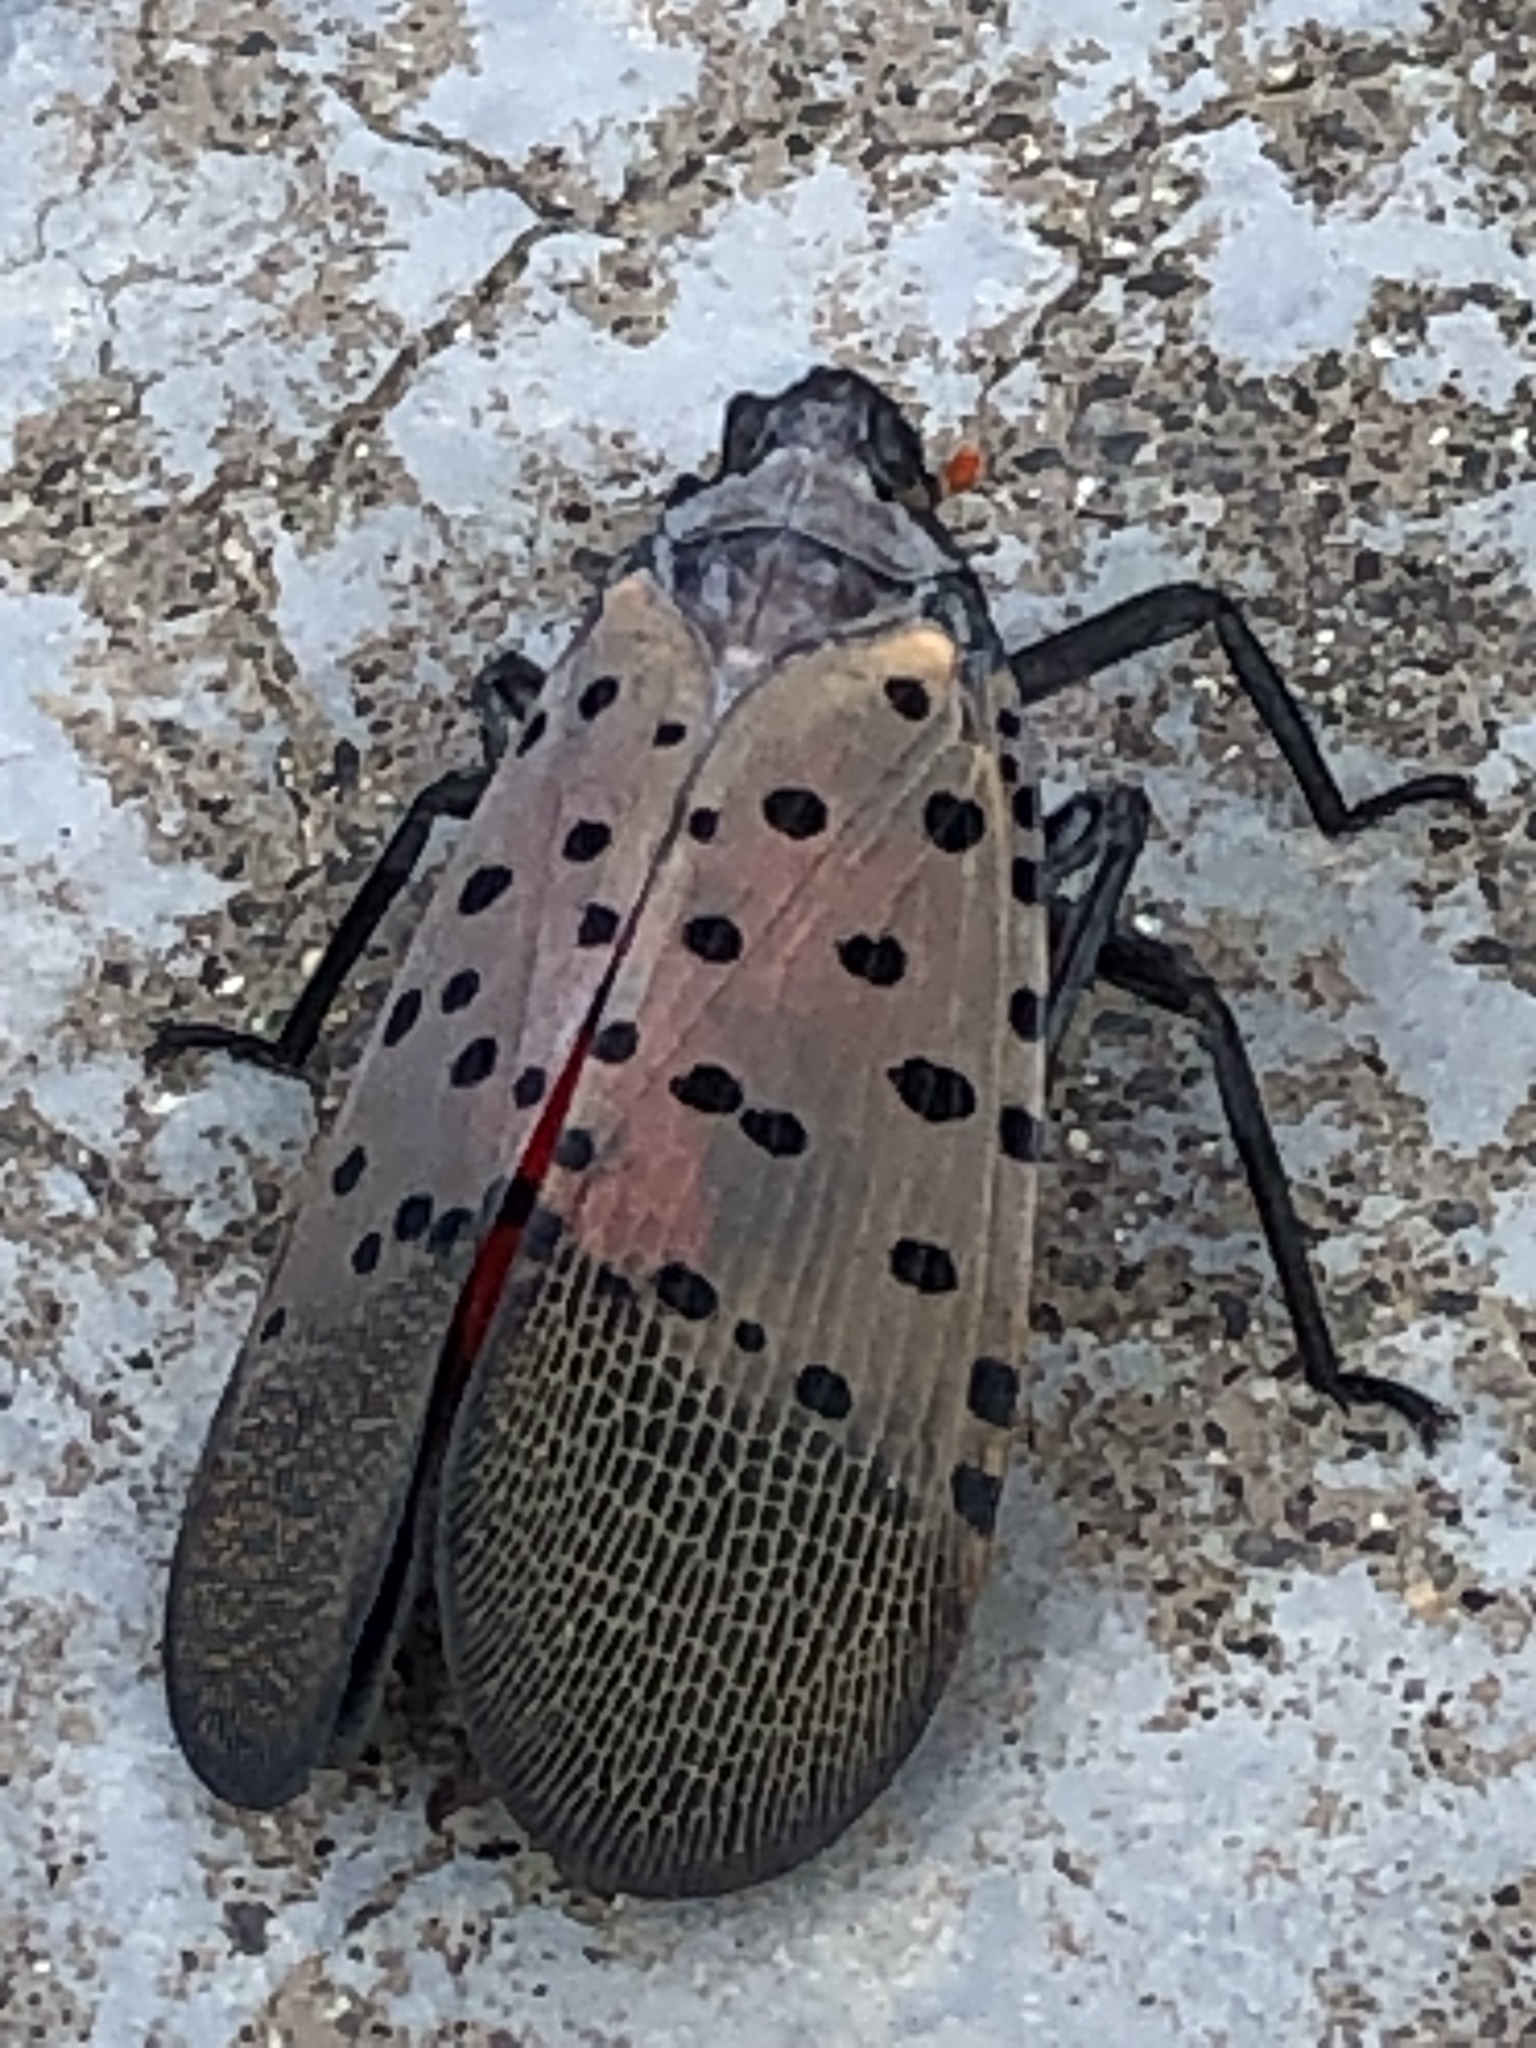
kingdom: Animalia
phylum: Arthropoda
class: Insecta
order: Hemiptera
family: Fulgoridae
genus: Lycorma
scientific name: Lycorma delicatula
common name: Spotted lanternfly
